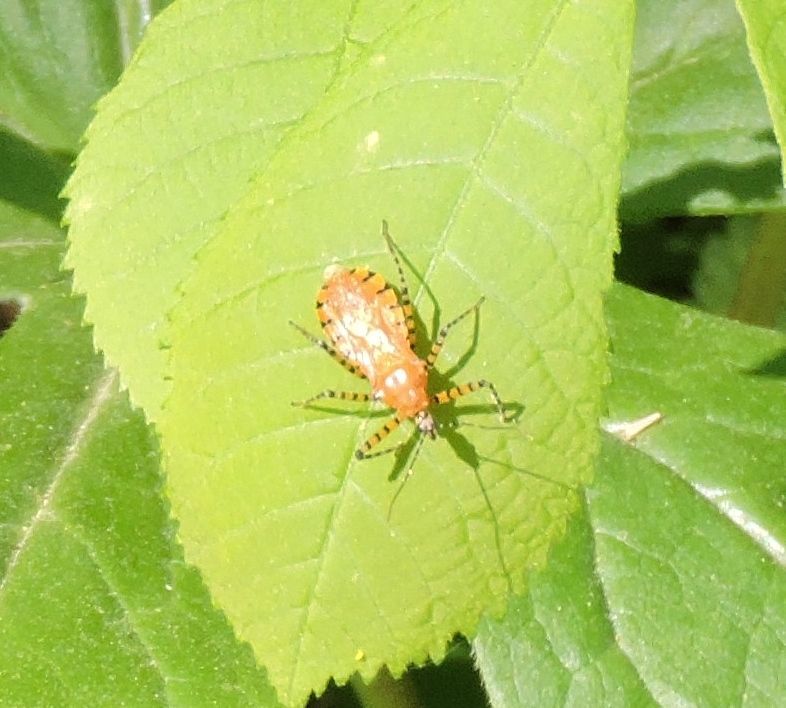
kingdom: Animalia
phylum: Arthropoda
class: Insecta
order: Hemiptera
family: Reduviidae
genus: Pselliopus
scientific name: Pselliopus barberi
